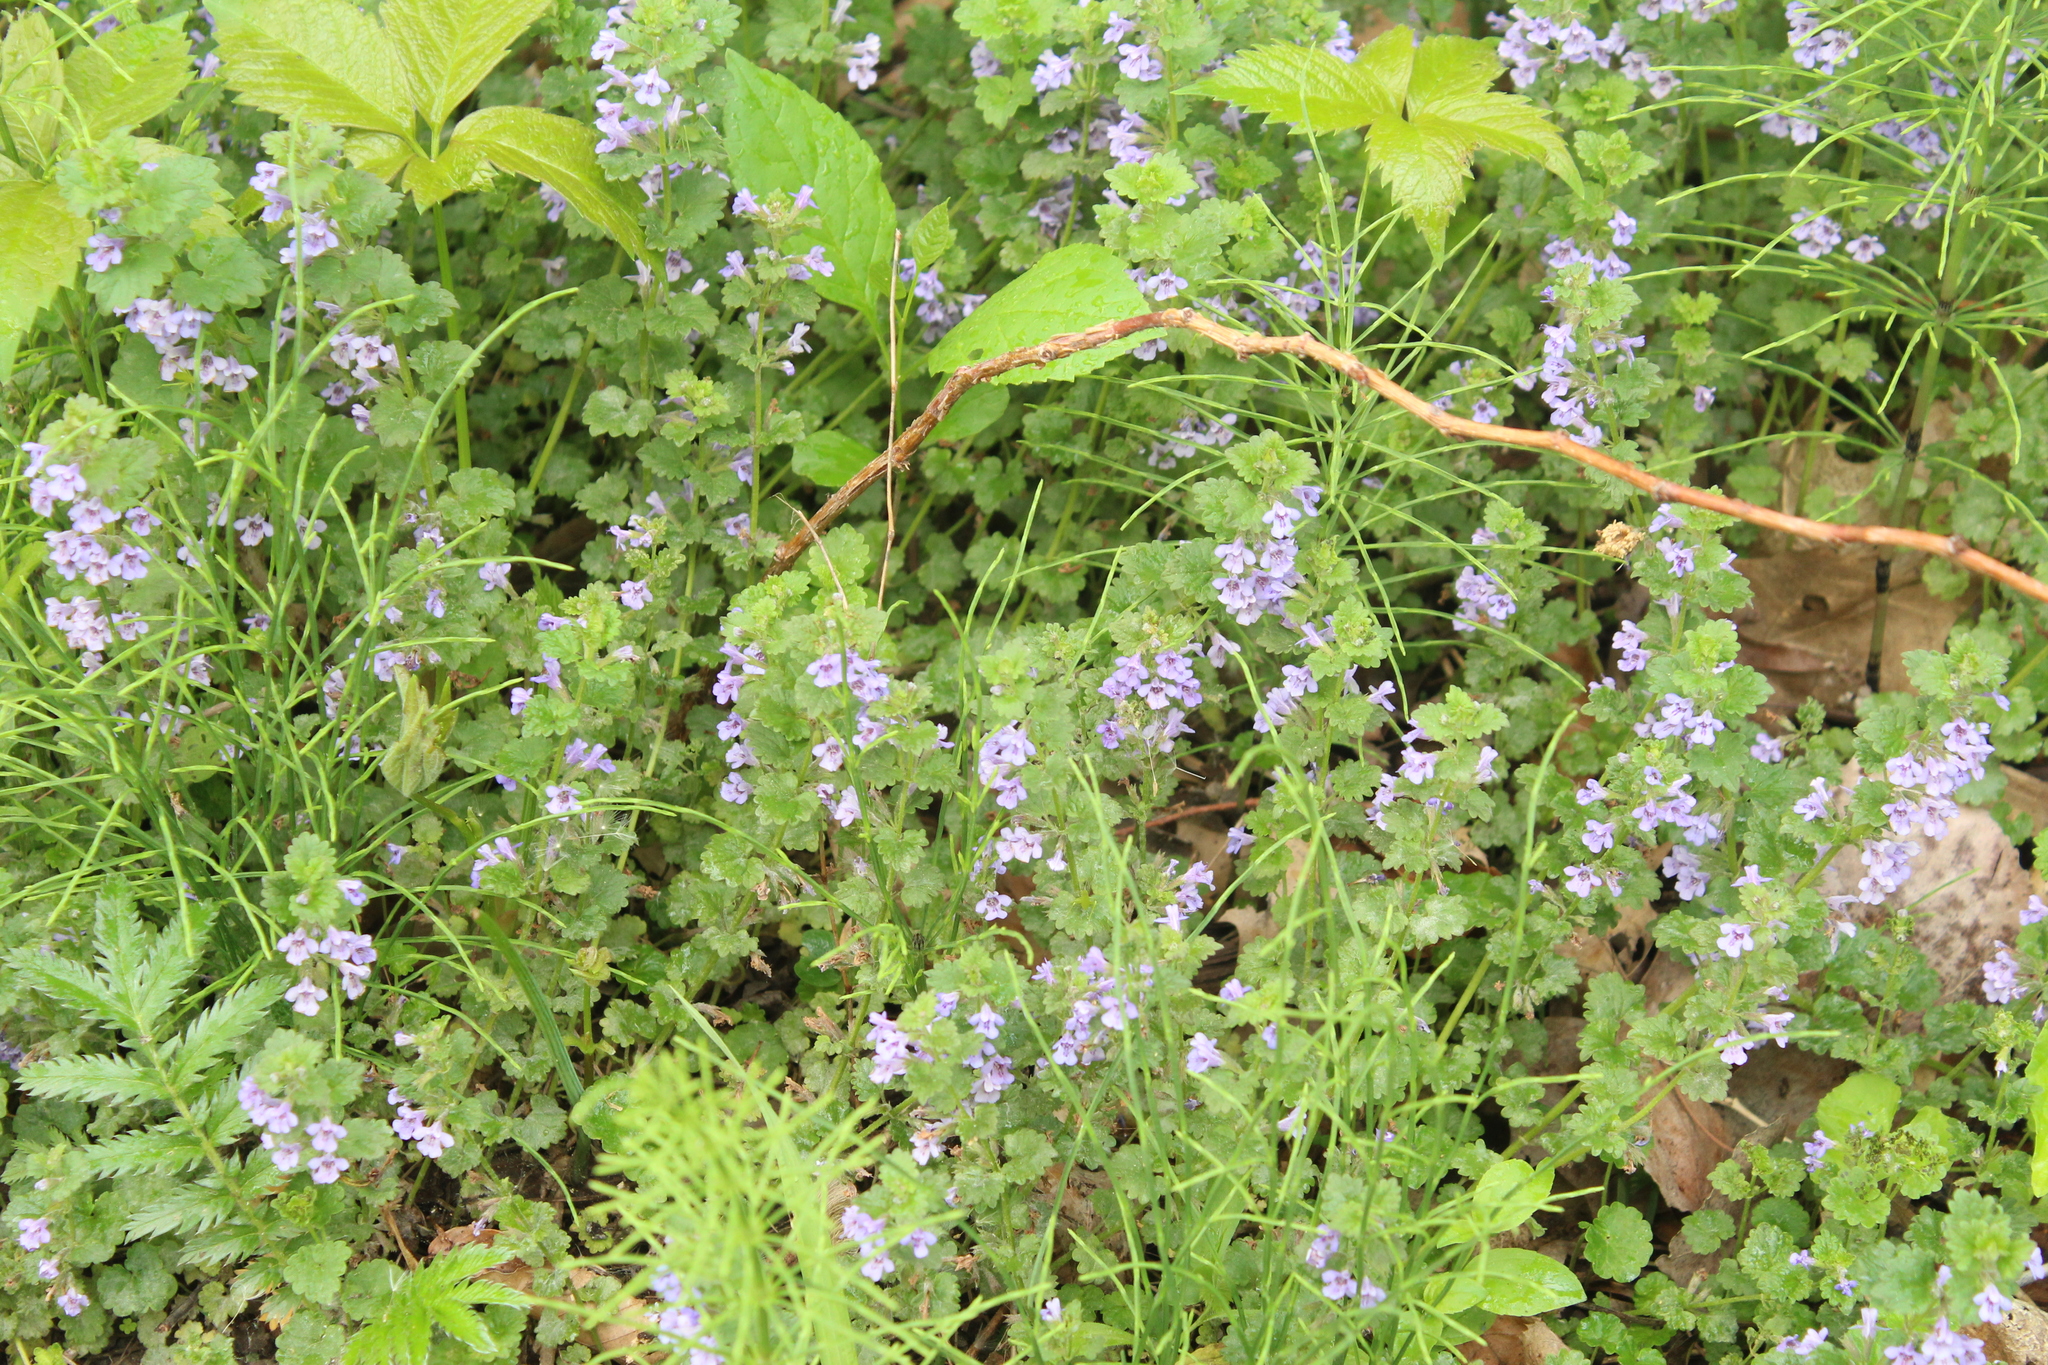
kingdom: Plantae
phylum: Tracheophyta
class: Magnoliopsida
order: Lamiales
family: Lamiaceae
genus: Glechoma
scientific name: Glechoma hederacea
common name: Ground ivy
